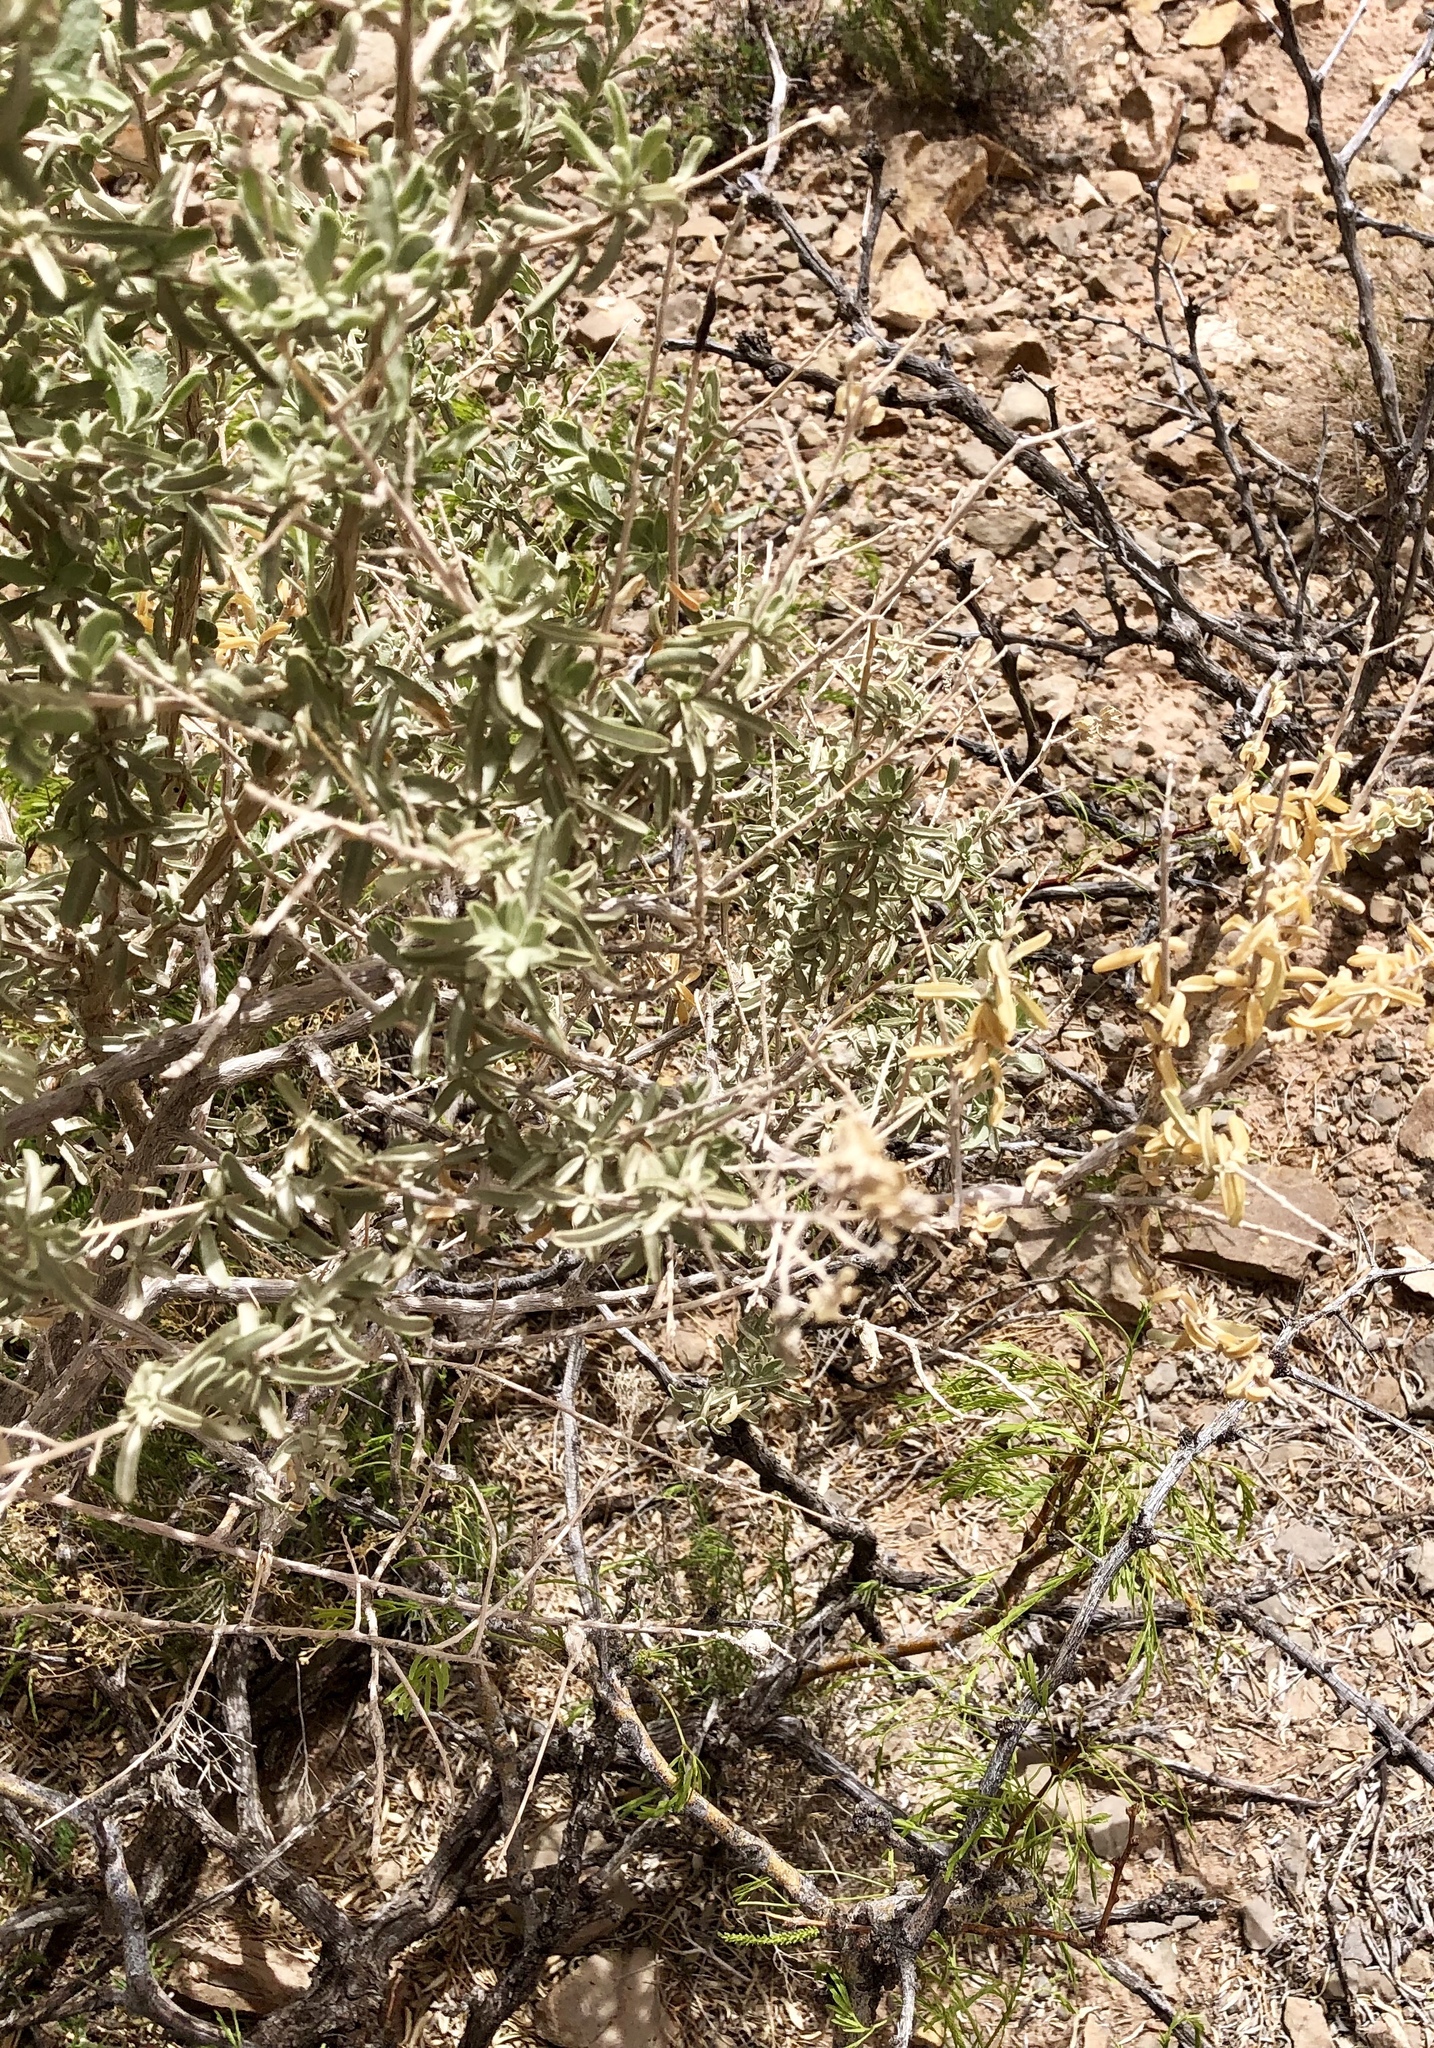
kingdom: Plantae
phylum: Tracheophyta
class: Magnoliopsida
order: Caryophyllales
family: Amaranthaceae
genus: Atriplex
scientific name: Atriplex canescens
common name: Four-wing saltbush
